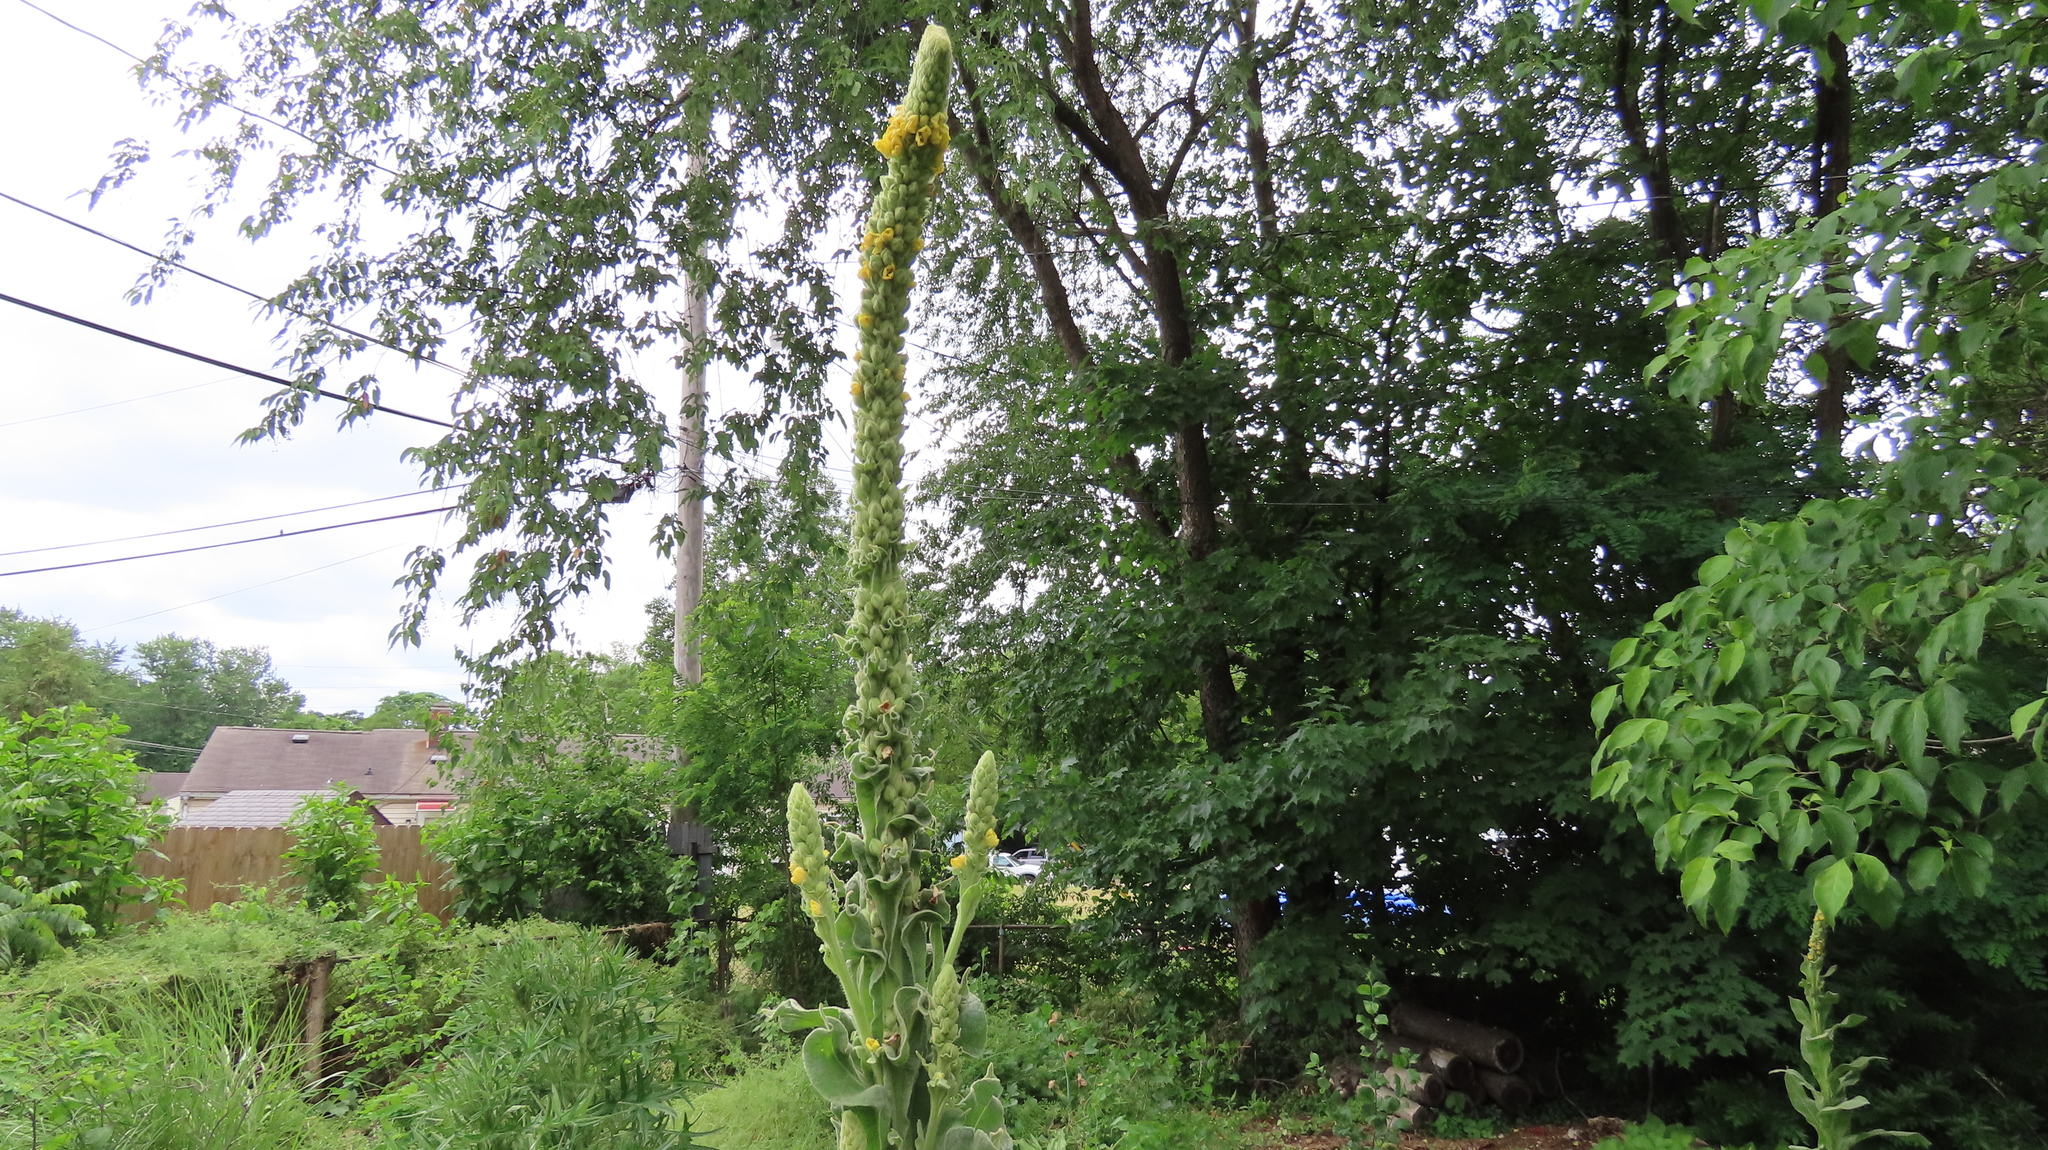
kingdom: Plantae
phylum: Tracheophyta
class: Magnoliopsida
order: Lamiales
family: Scrophulariaceae
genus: Verbascum
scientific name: Verbascum thapsus
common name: Common mullein
